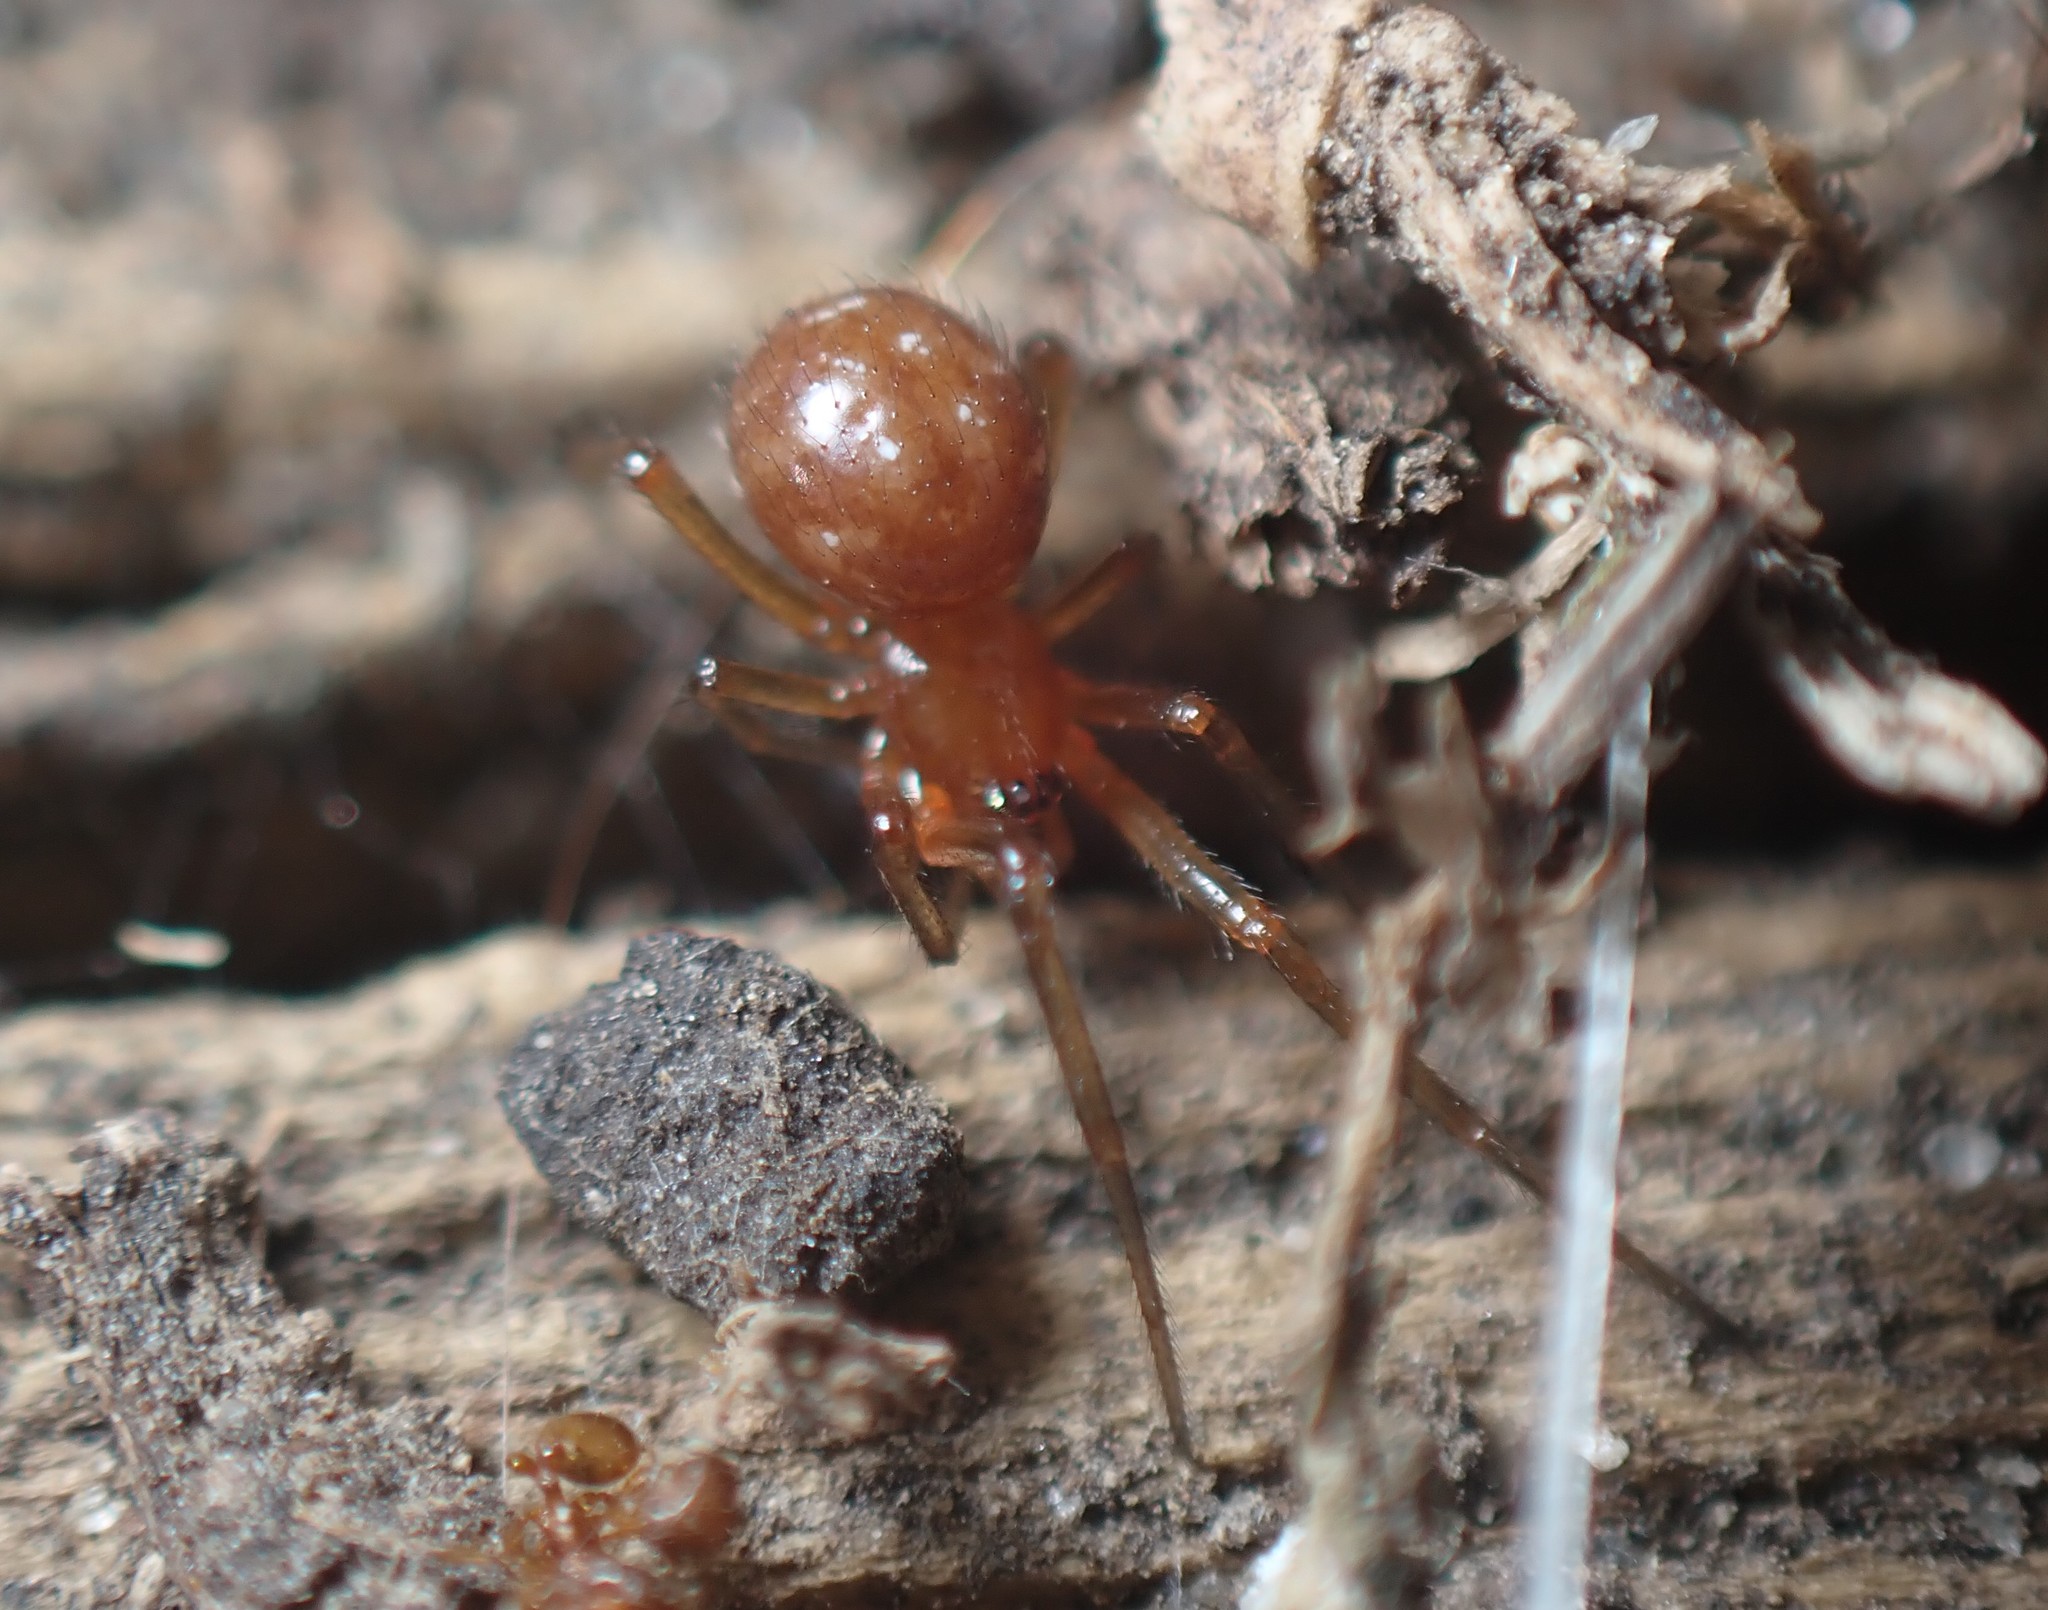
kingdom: Animalia
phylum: Arthropoda
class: Arachnida
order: Araneae
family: Theridiidae
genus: Steatoda
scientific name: Steatoda capensis
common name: Cobweb weaver
